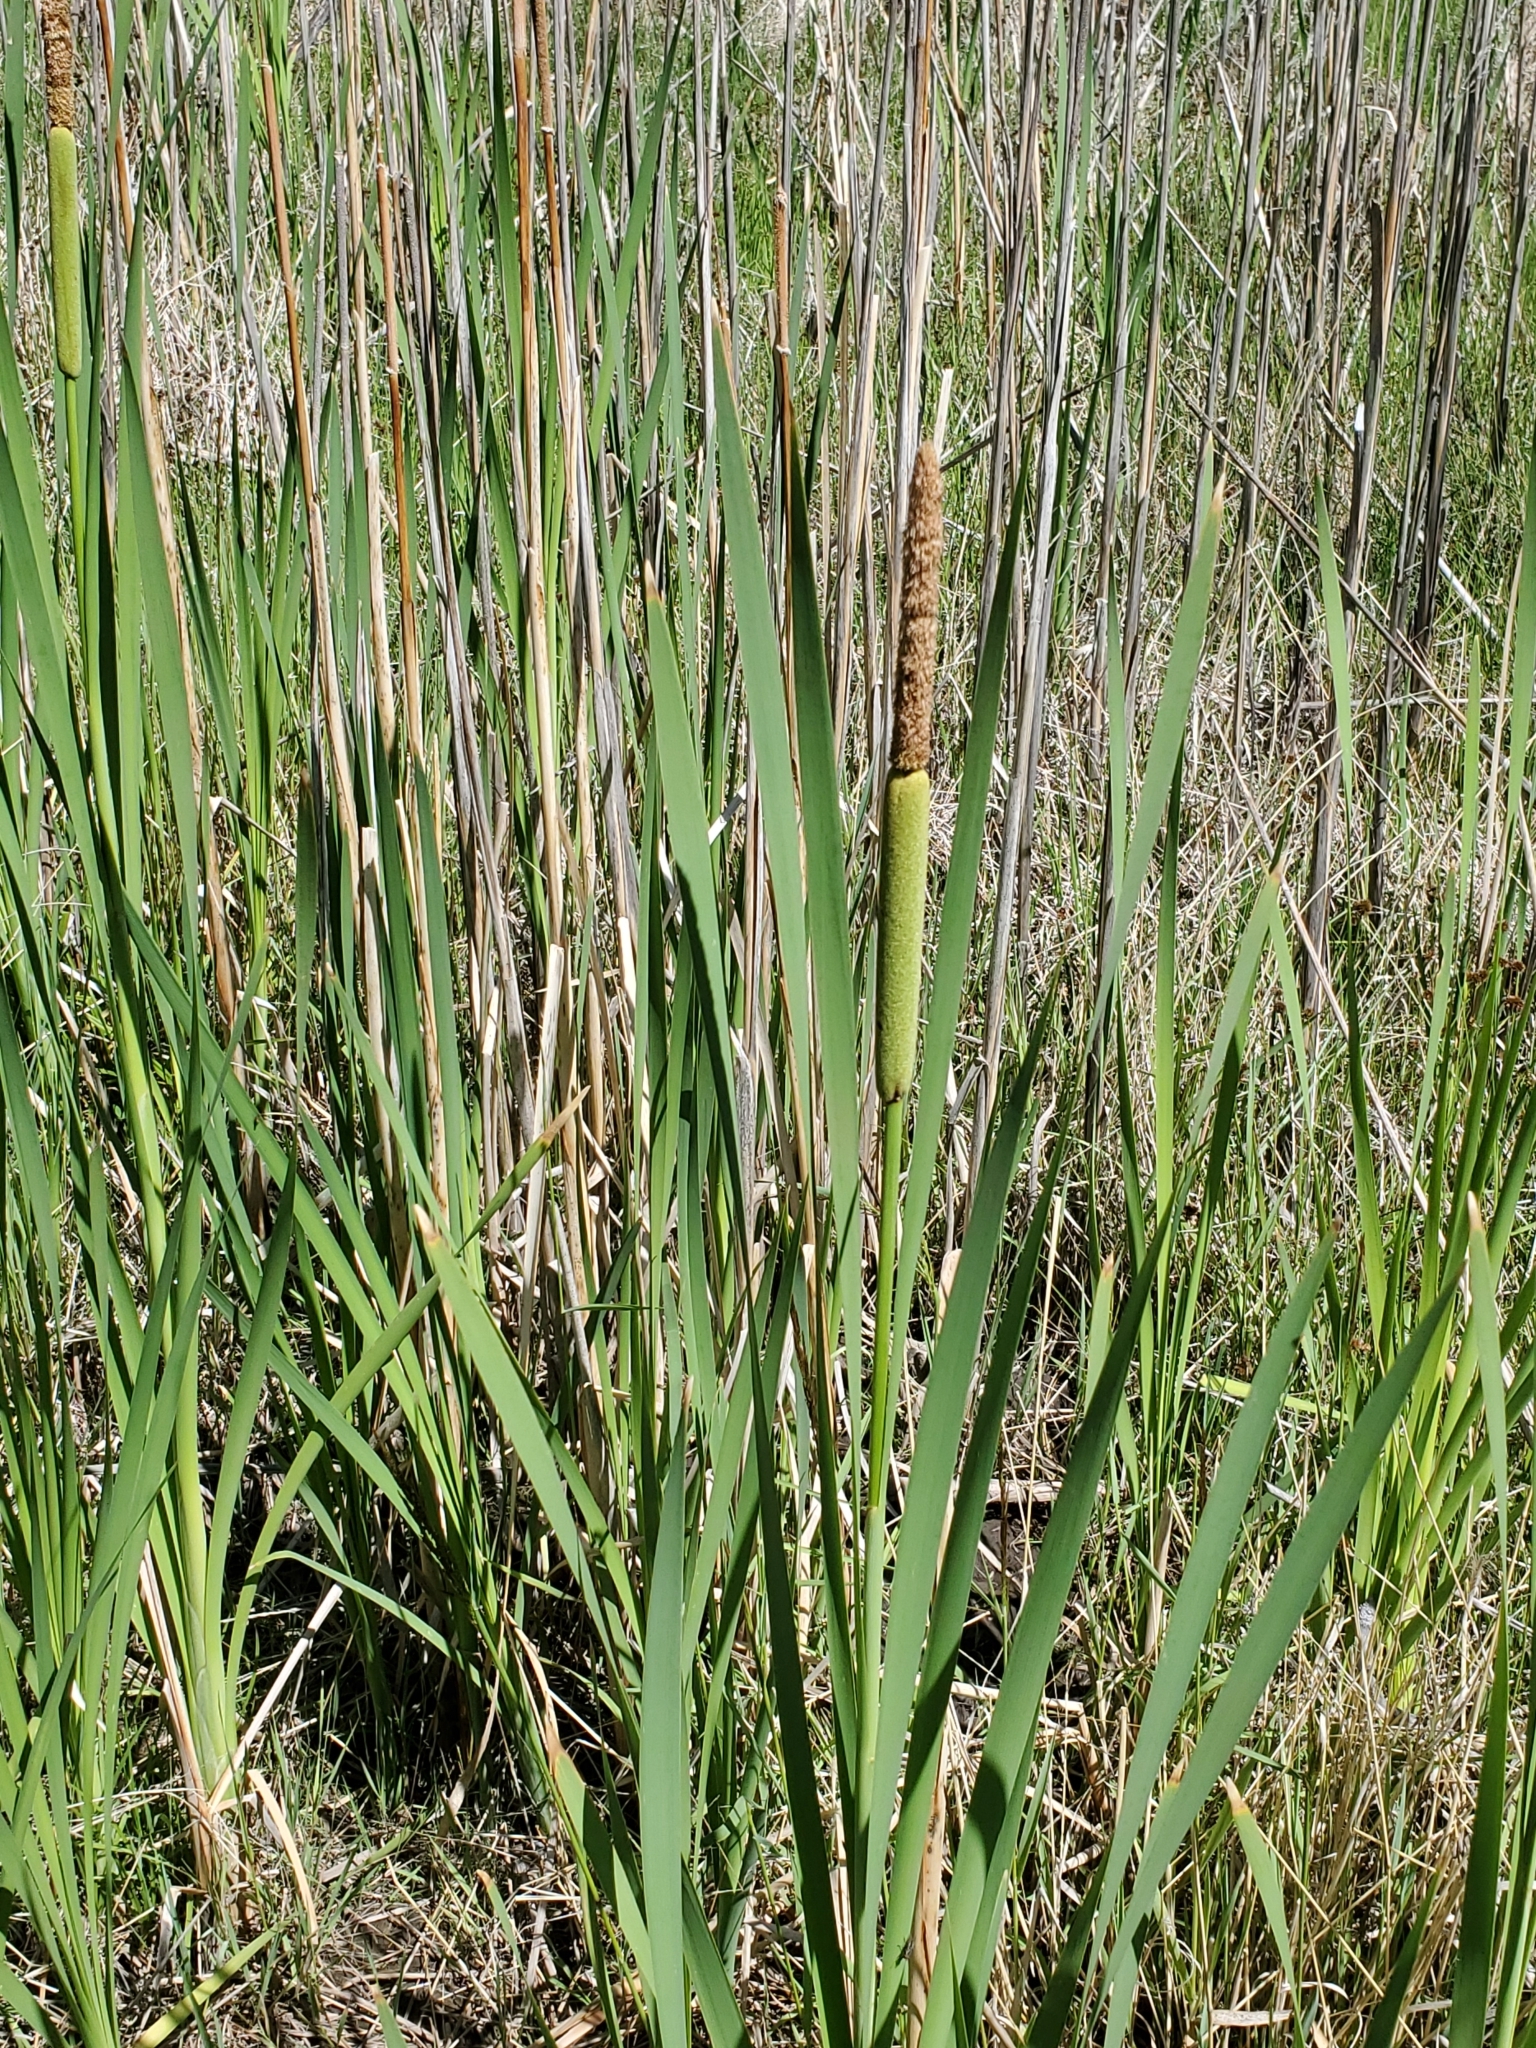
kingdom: Plantae
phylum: Tracheophyta
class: Liliopsida
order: Poales
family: Typhaceae
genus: Typha
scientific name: Typha latifolia
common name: Broadleaf cattail
